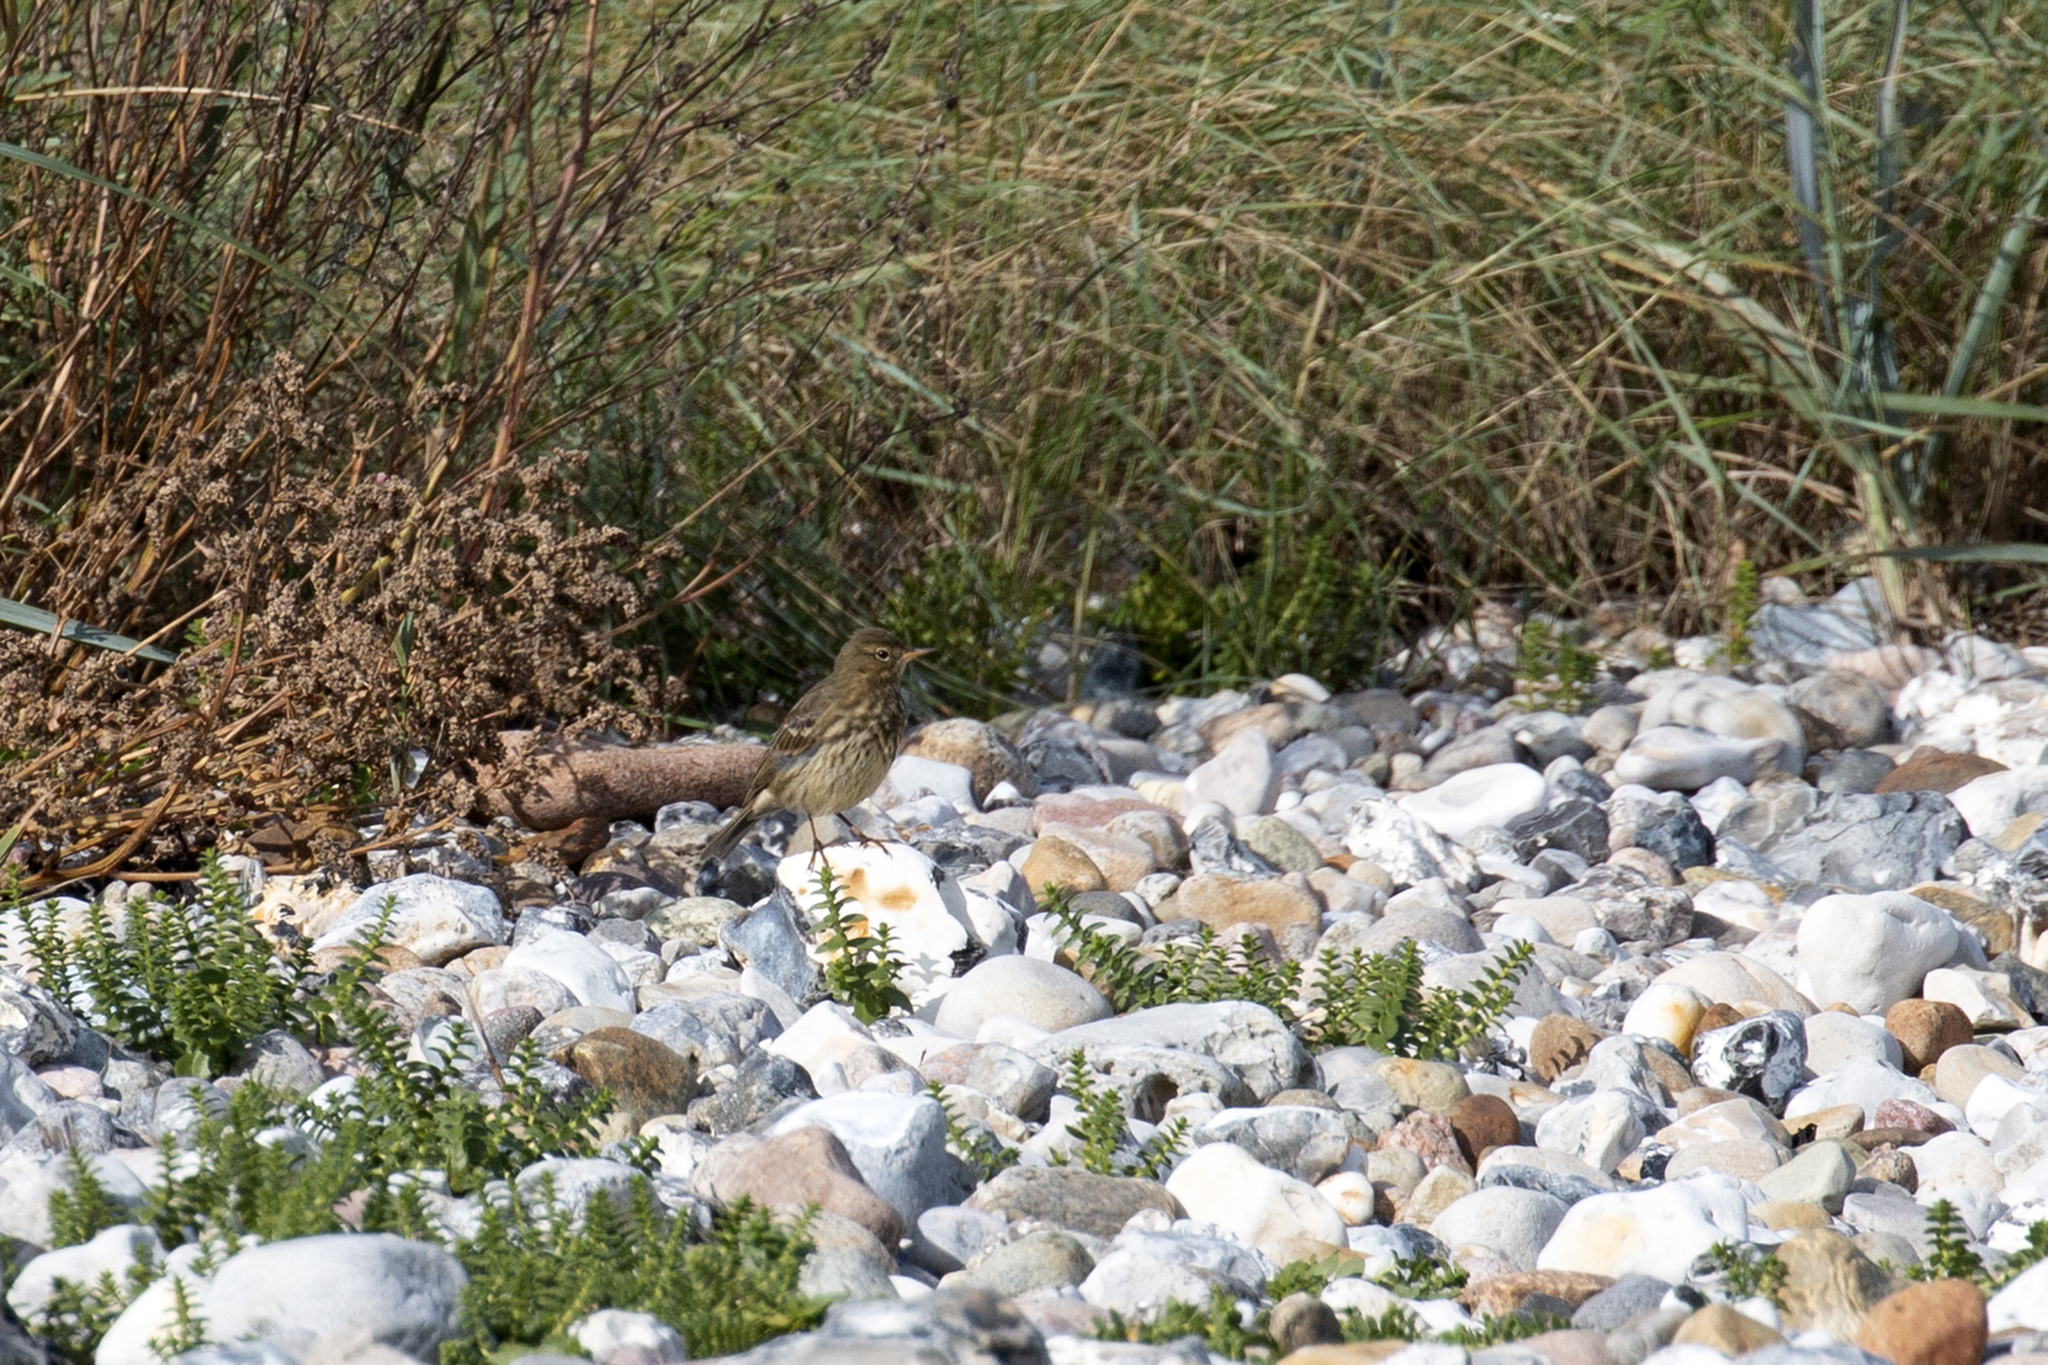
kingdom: Animalia
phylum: Chordata
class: Aves
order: Passeriformes
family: Motacillidae
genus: Anthus
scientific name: Anthus petrosus
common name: Eurasian rock pipit
